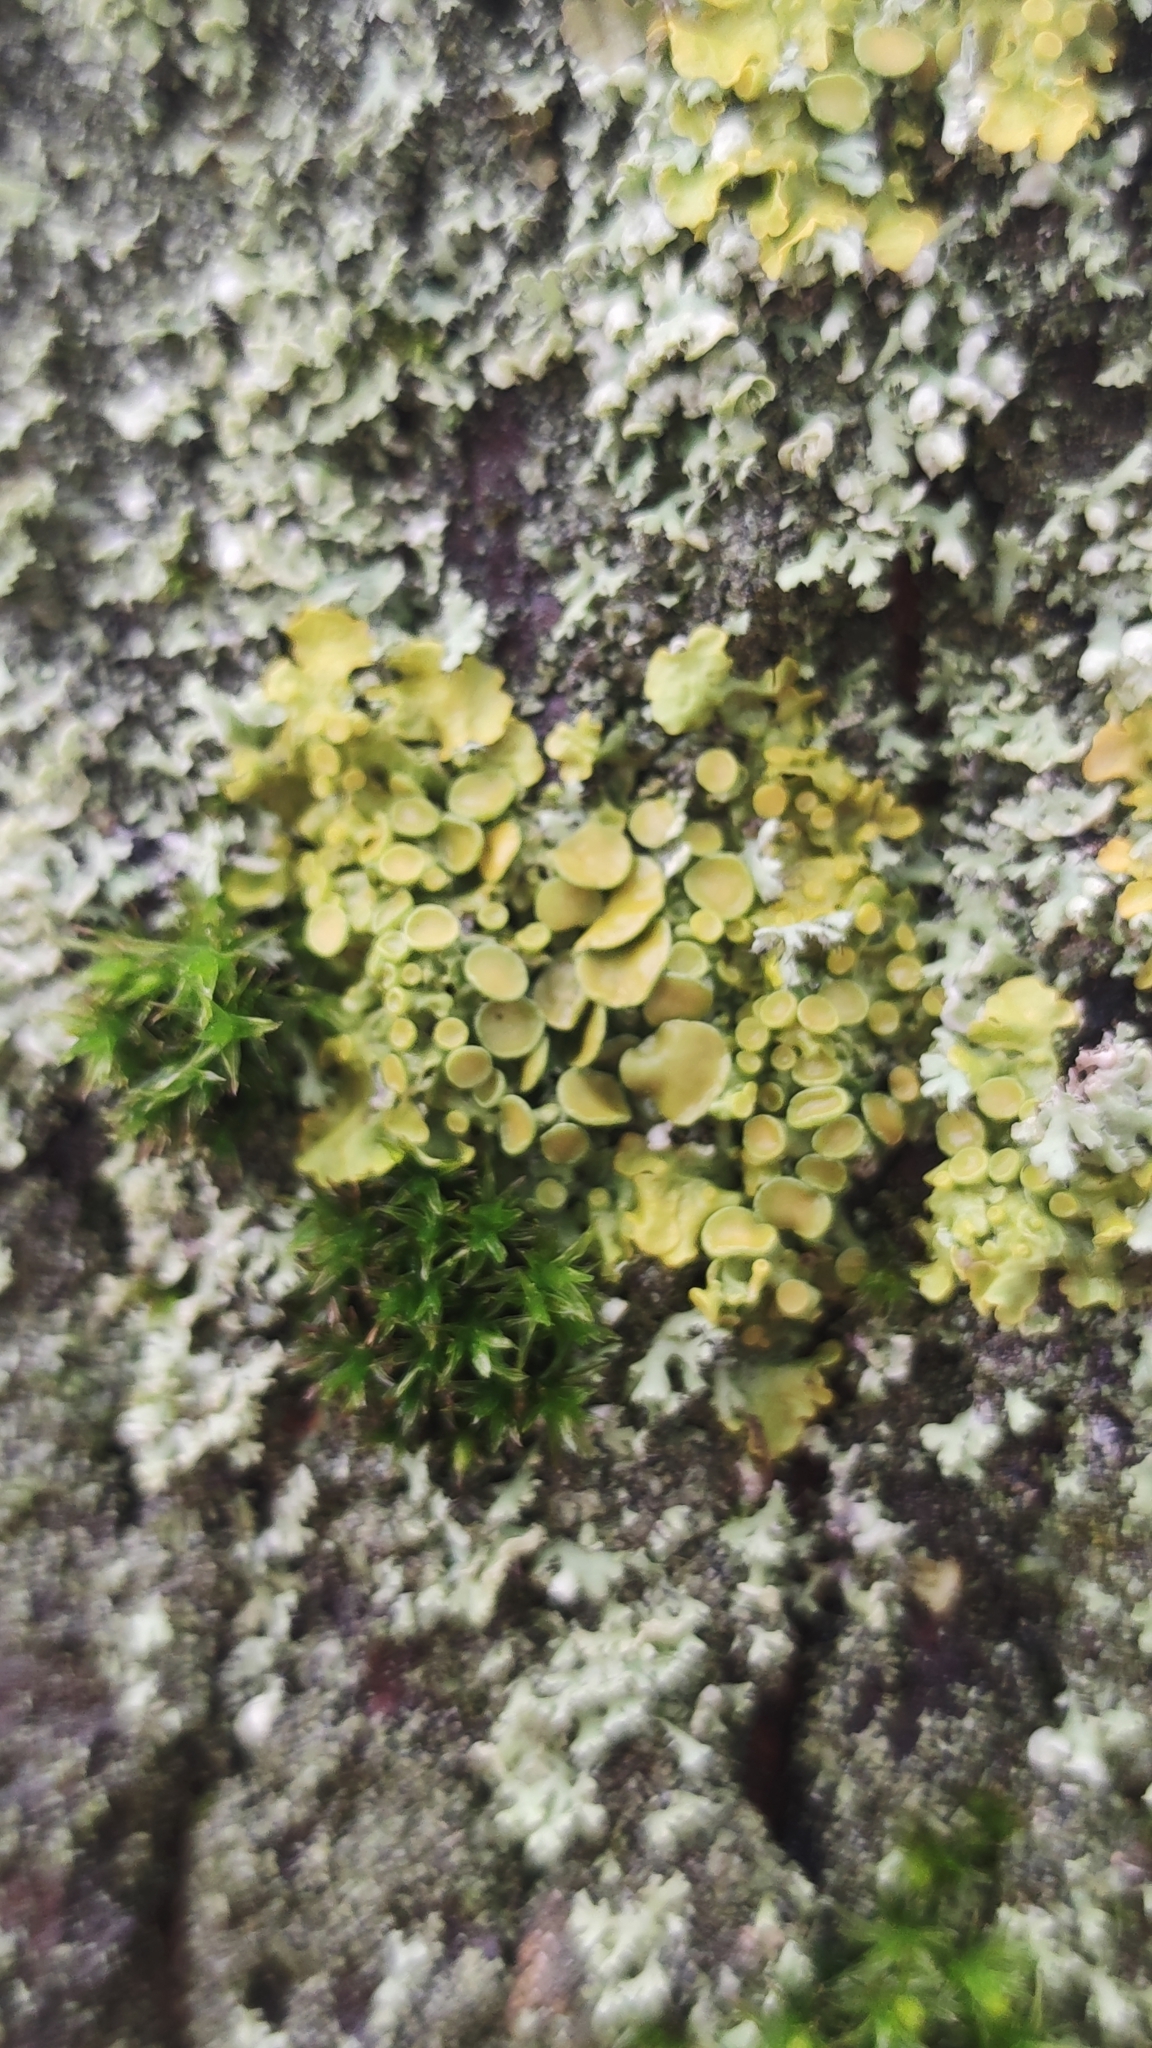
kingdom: Fungi
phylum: Ascomycota
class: Lecanoromycetes
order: Teloschistales
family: Teloschistaceae
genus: Xanthoria
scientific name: Xanthoria parietina
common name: Common orange lichen
